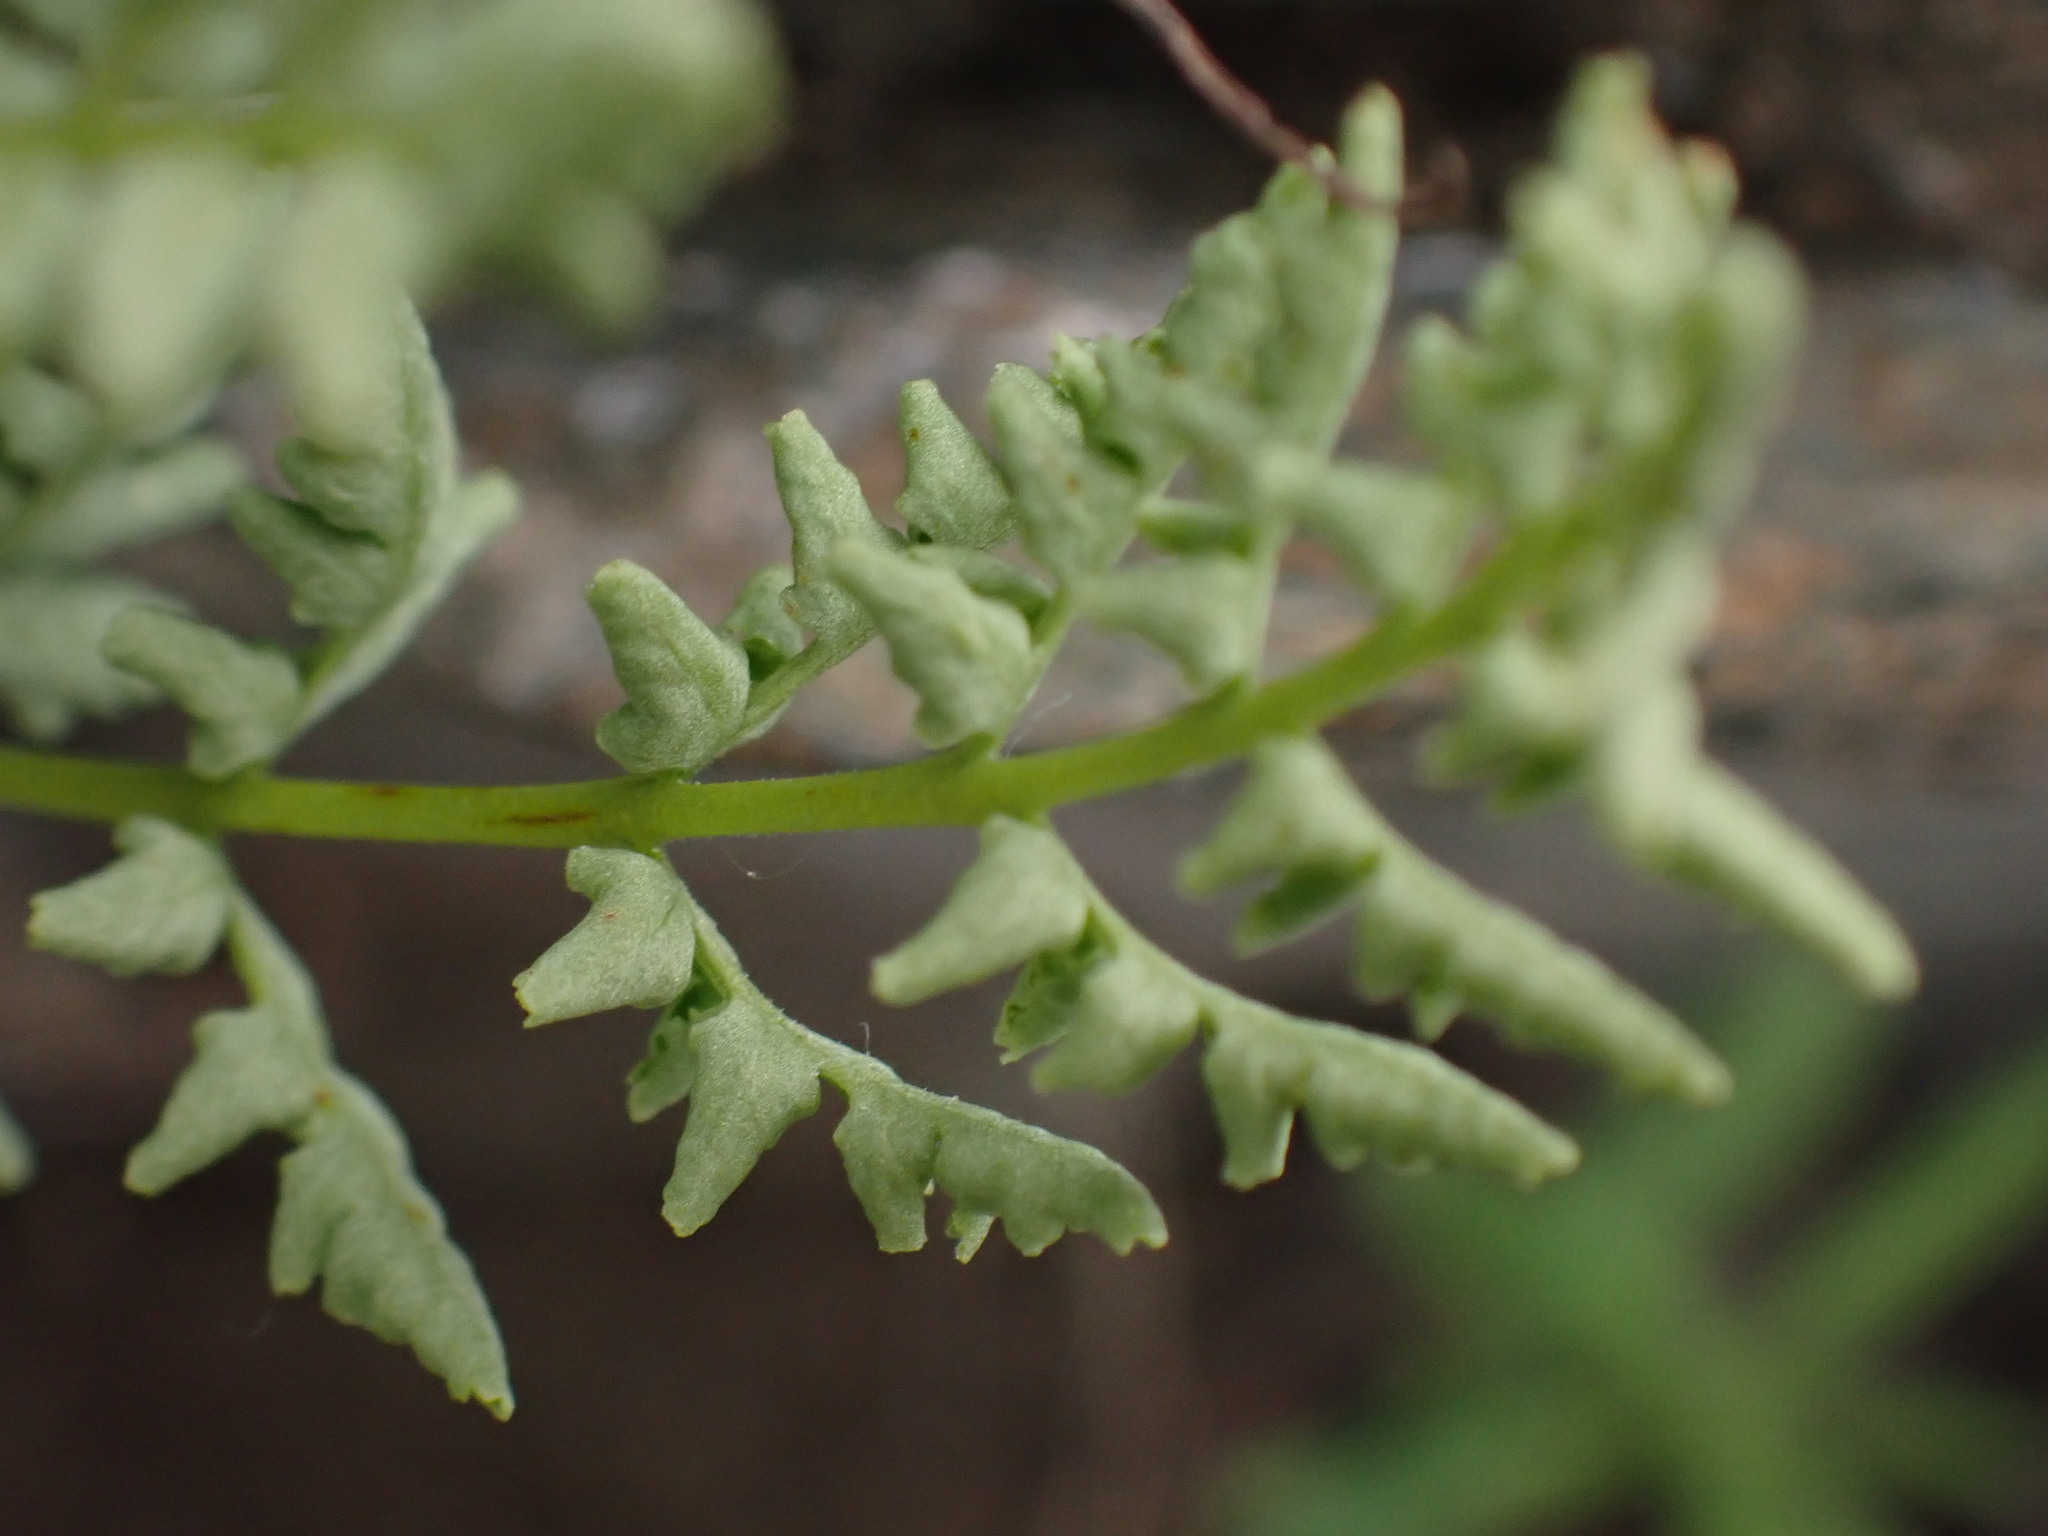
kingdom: Plantae
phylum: Tracheophyta
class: Polypodiopsida
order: Polypodiales
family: Woodsiaceae
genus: Physematium
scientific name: Physematium oreganum
